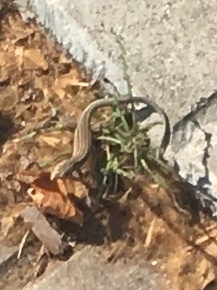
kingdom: Animalia
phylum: Chordata
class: Squamata
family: Lacertidae
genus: Podarcis
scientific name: Podarcis liolepis
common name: Catalonian wall lizard
